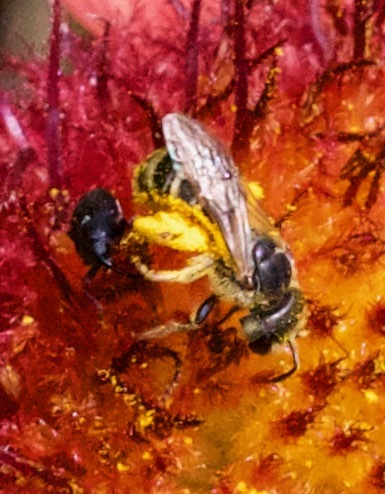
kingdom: Animalia
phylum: Arthropoda
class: Insecta
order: Hymenoptera
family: Halictidae
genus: Halictus
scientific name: Halictus ligatus
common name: Ligated furrow bee
